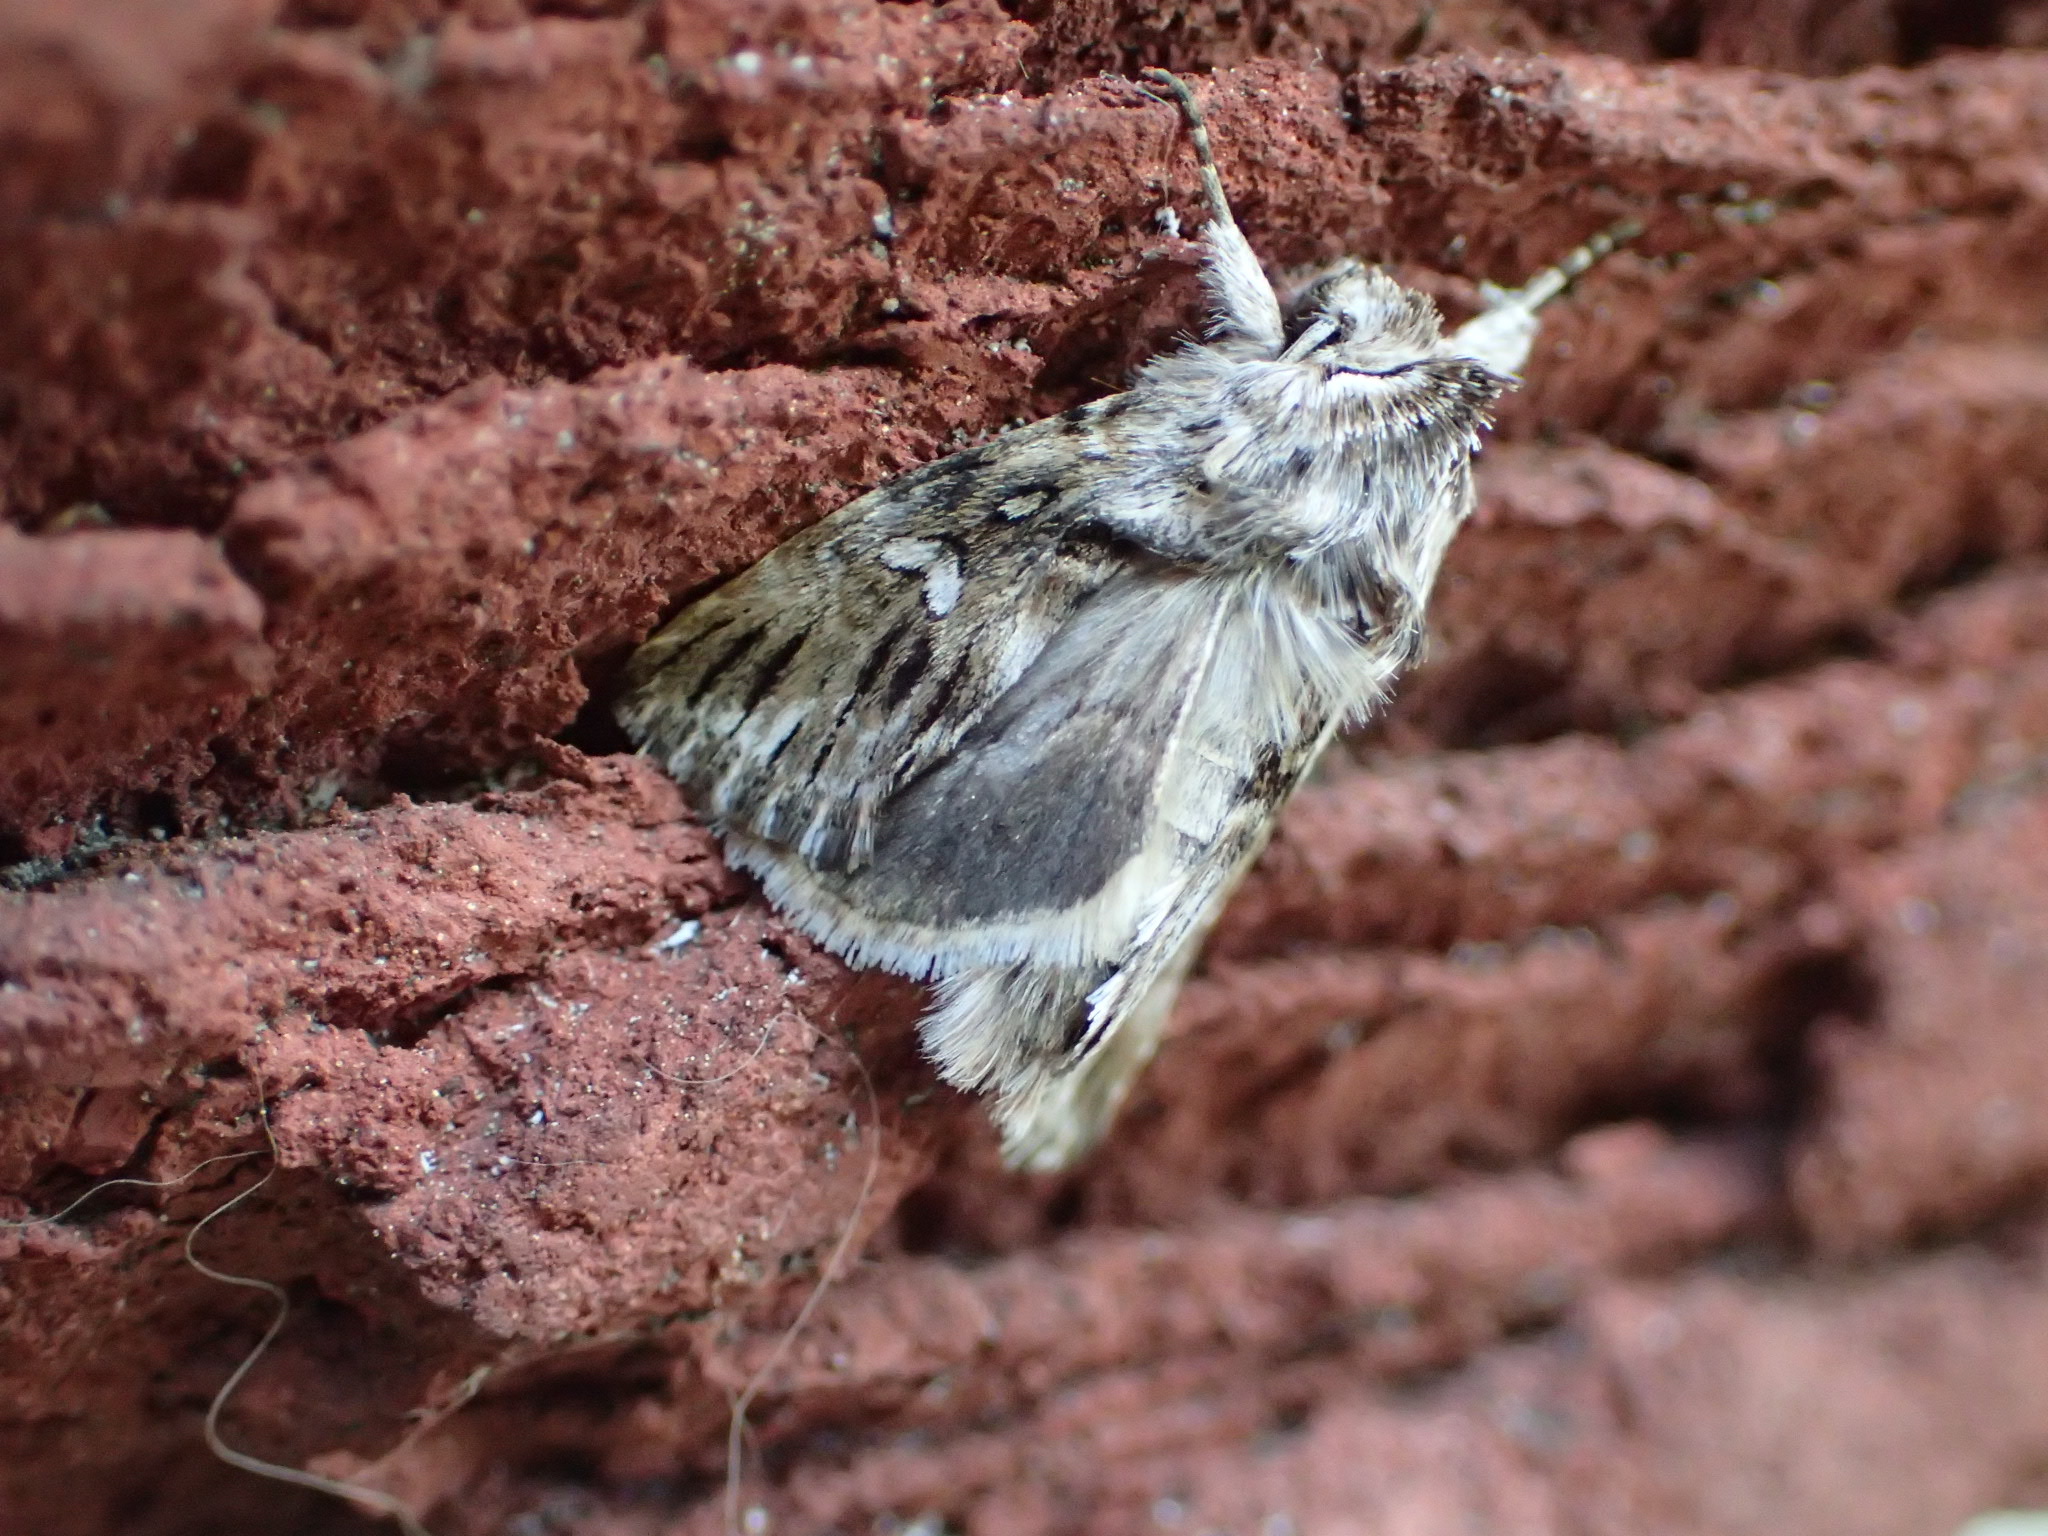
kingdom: Animalia
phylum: Arthropoda
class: Insecta
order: Lepidoptera
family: Noctuidae
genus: Calophasia
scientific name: Calophasia lunula
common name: Toadflax brocade
